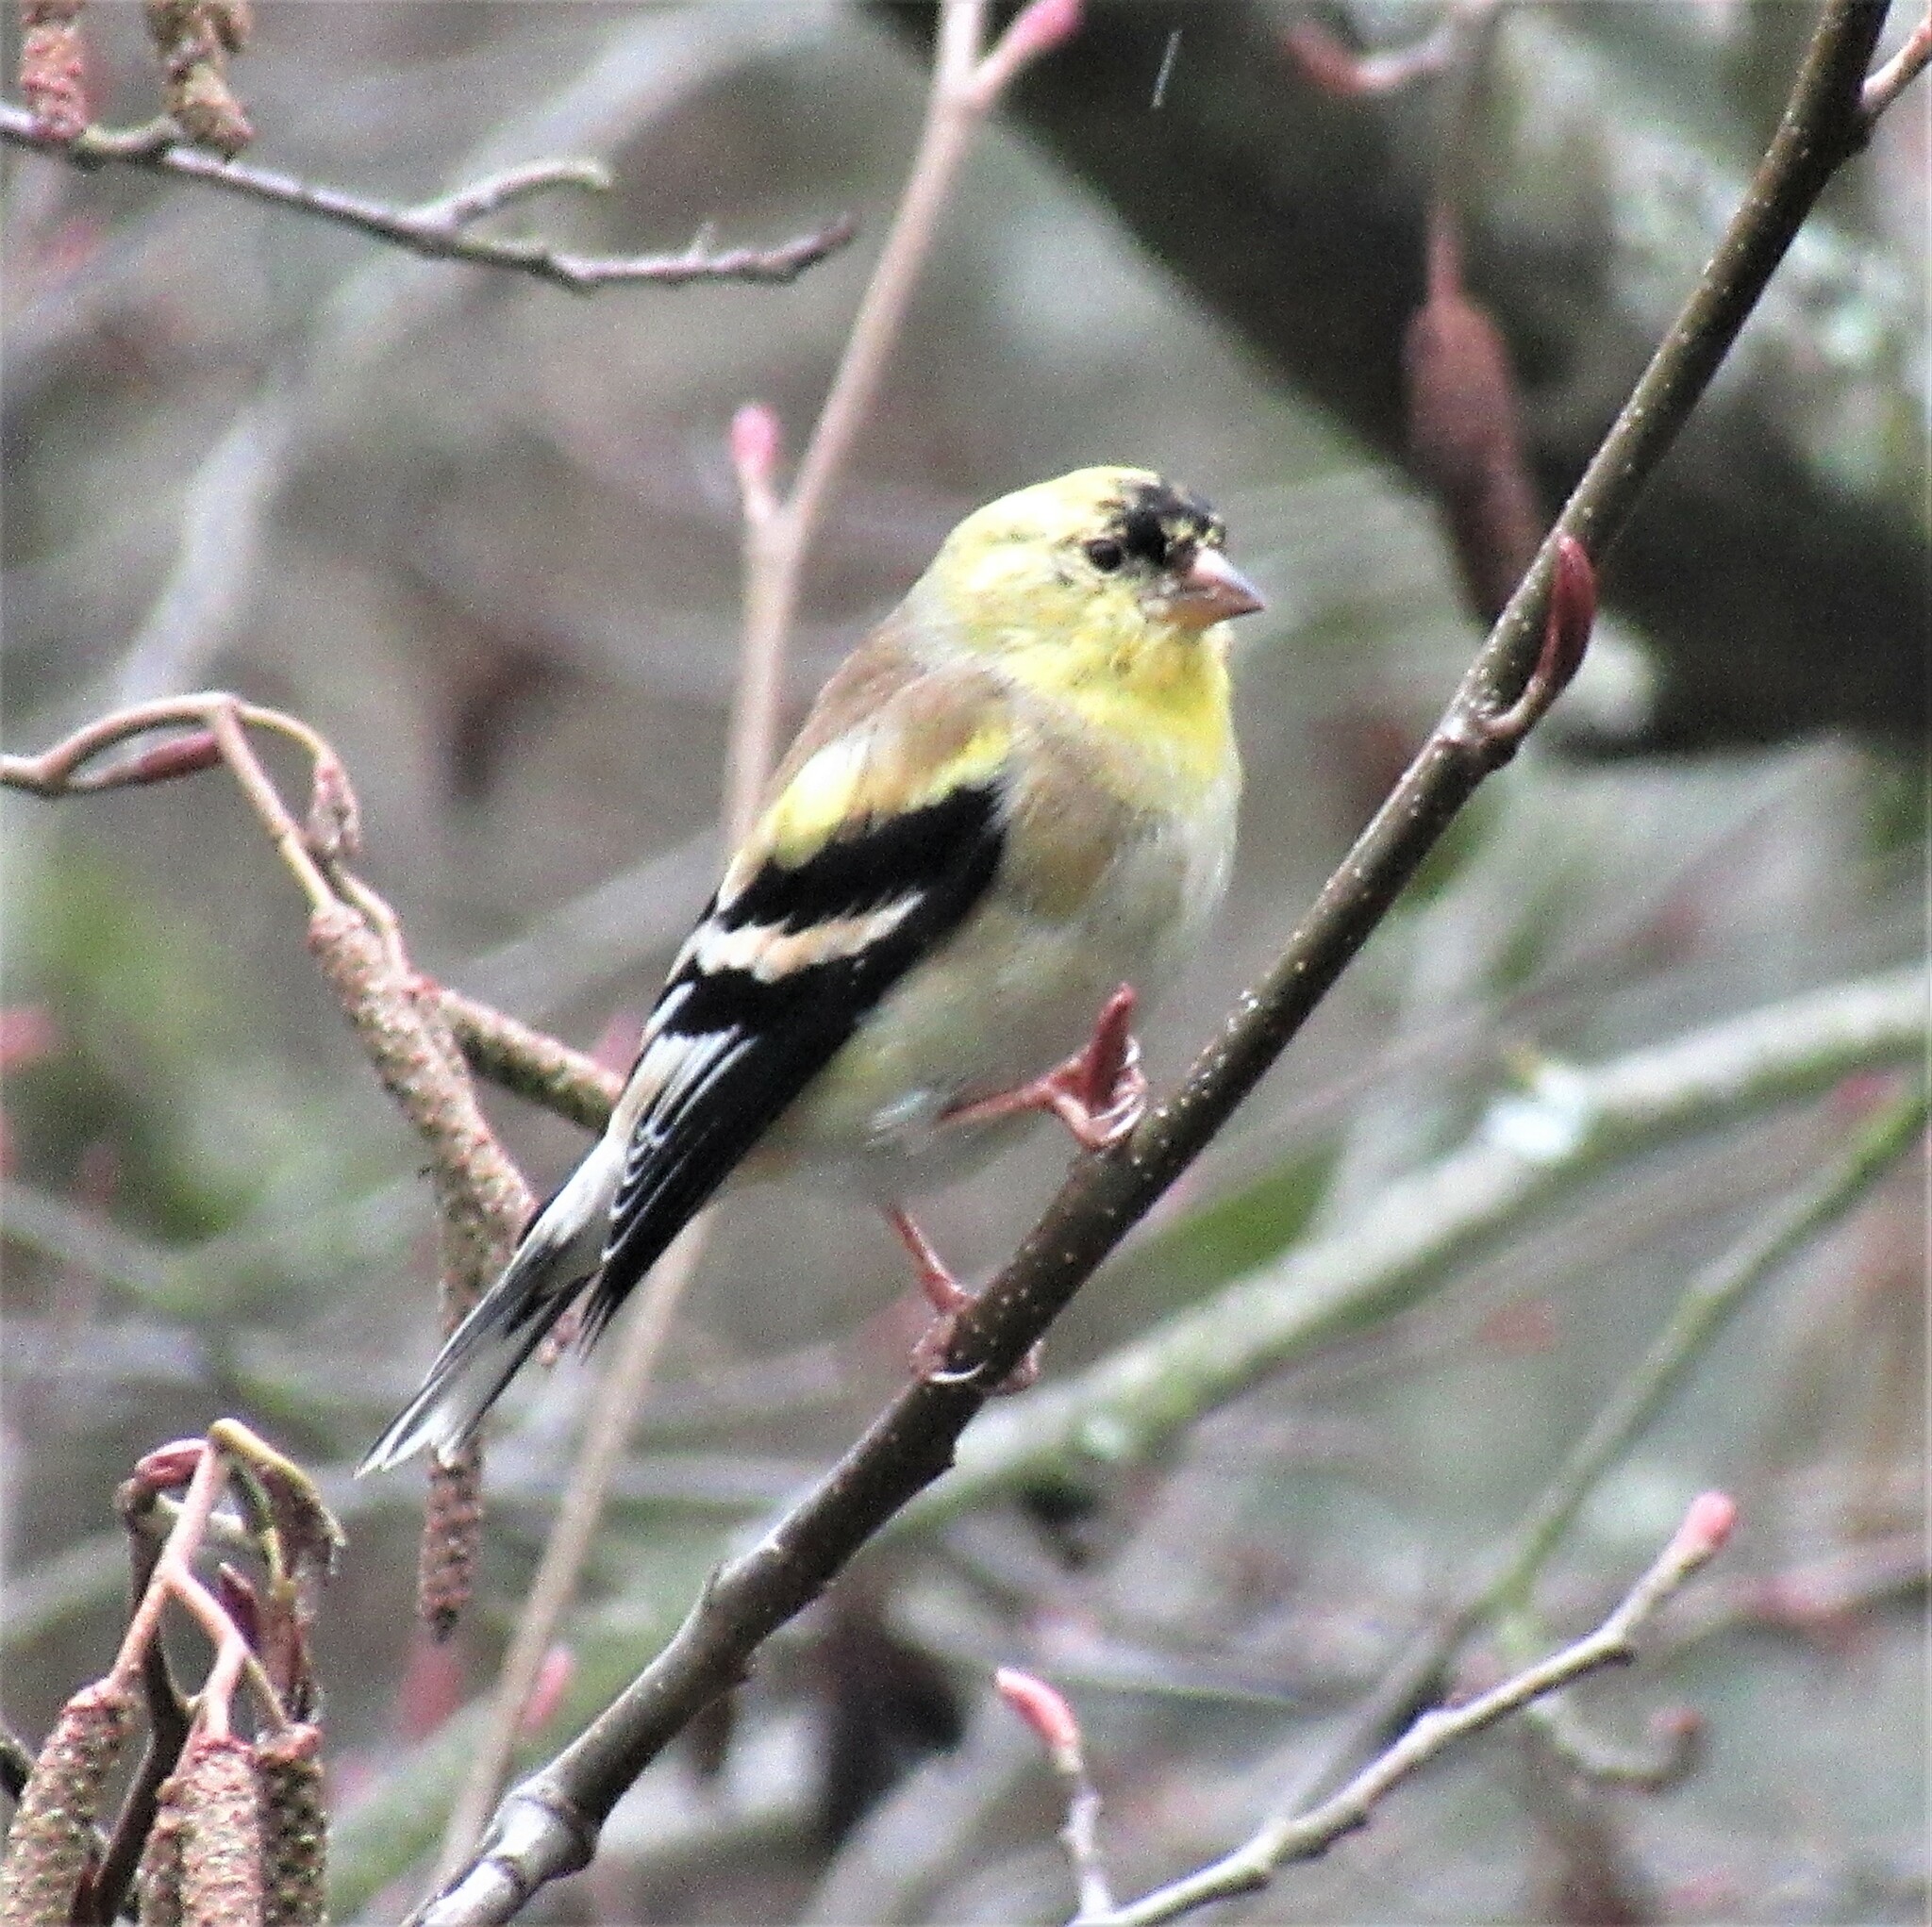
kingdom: Animalia
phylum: Chordata
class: Aves
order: Passeriformes
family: Fringillidae
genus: Spinus
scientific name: Spinus tristis
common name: American goldfinch
